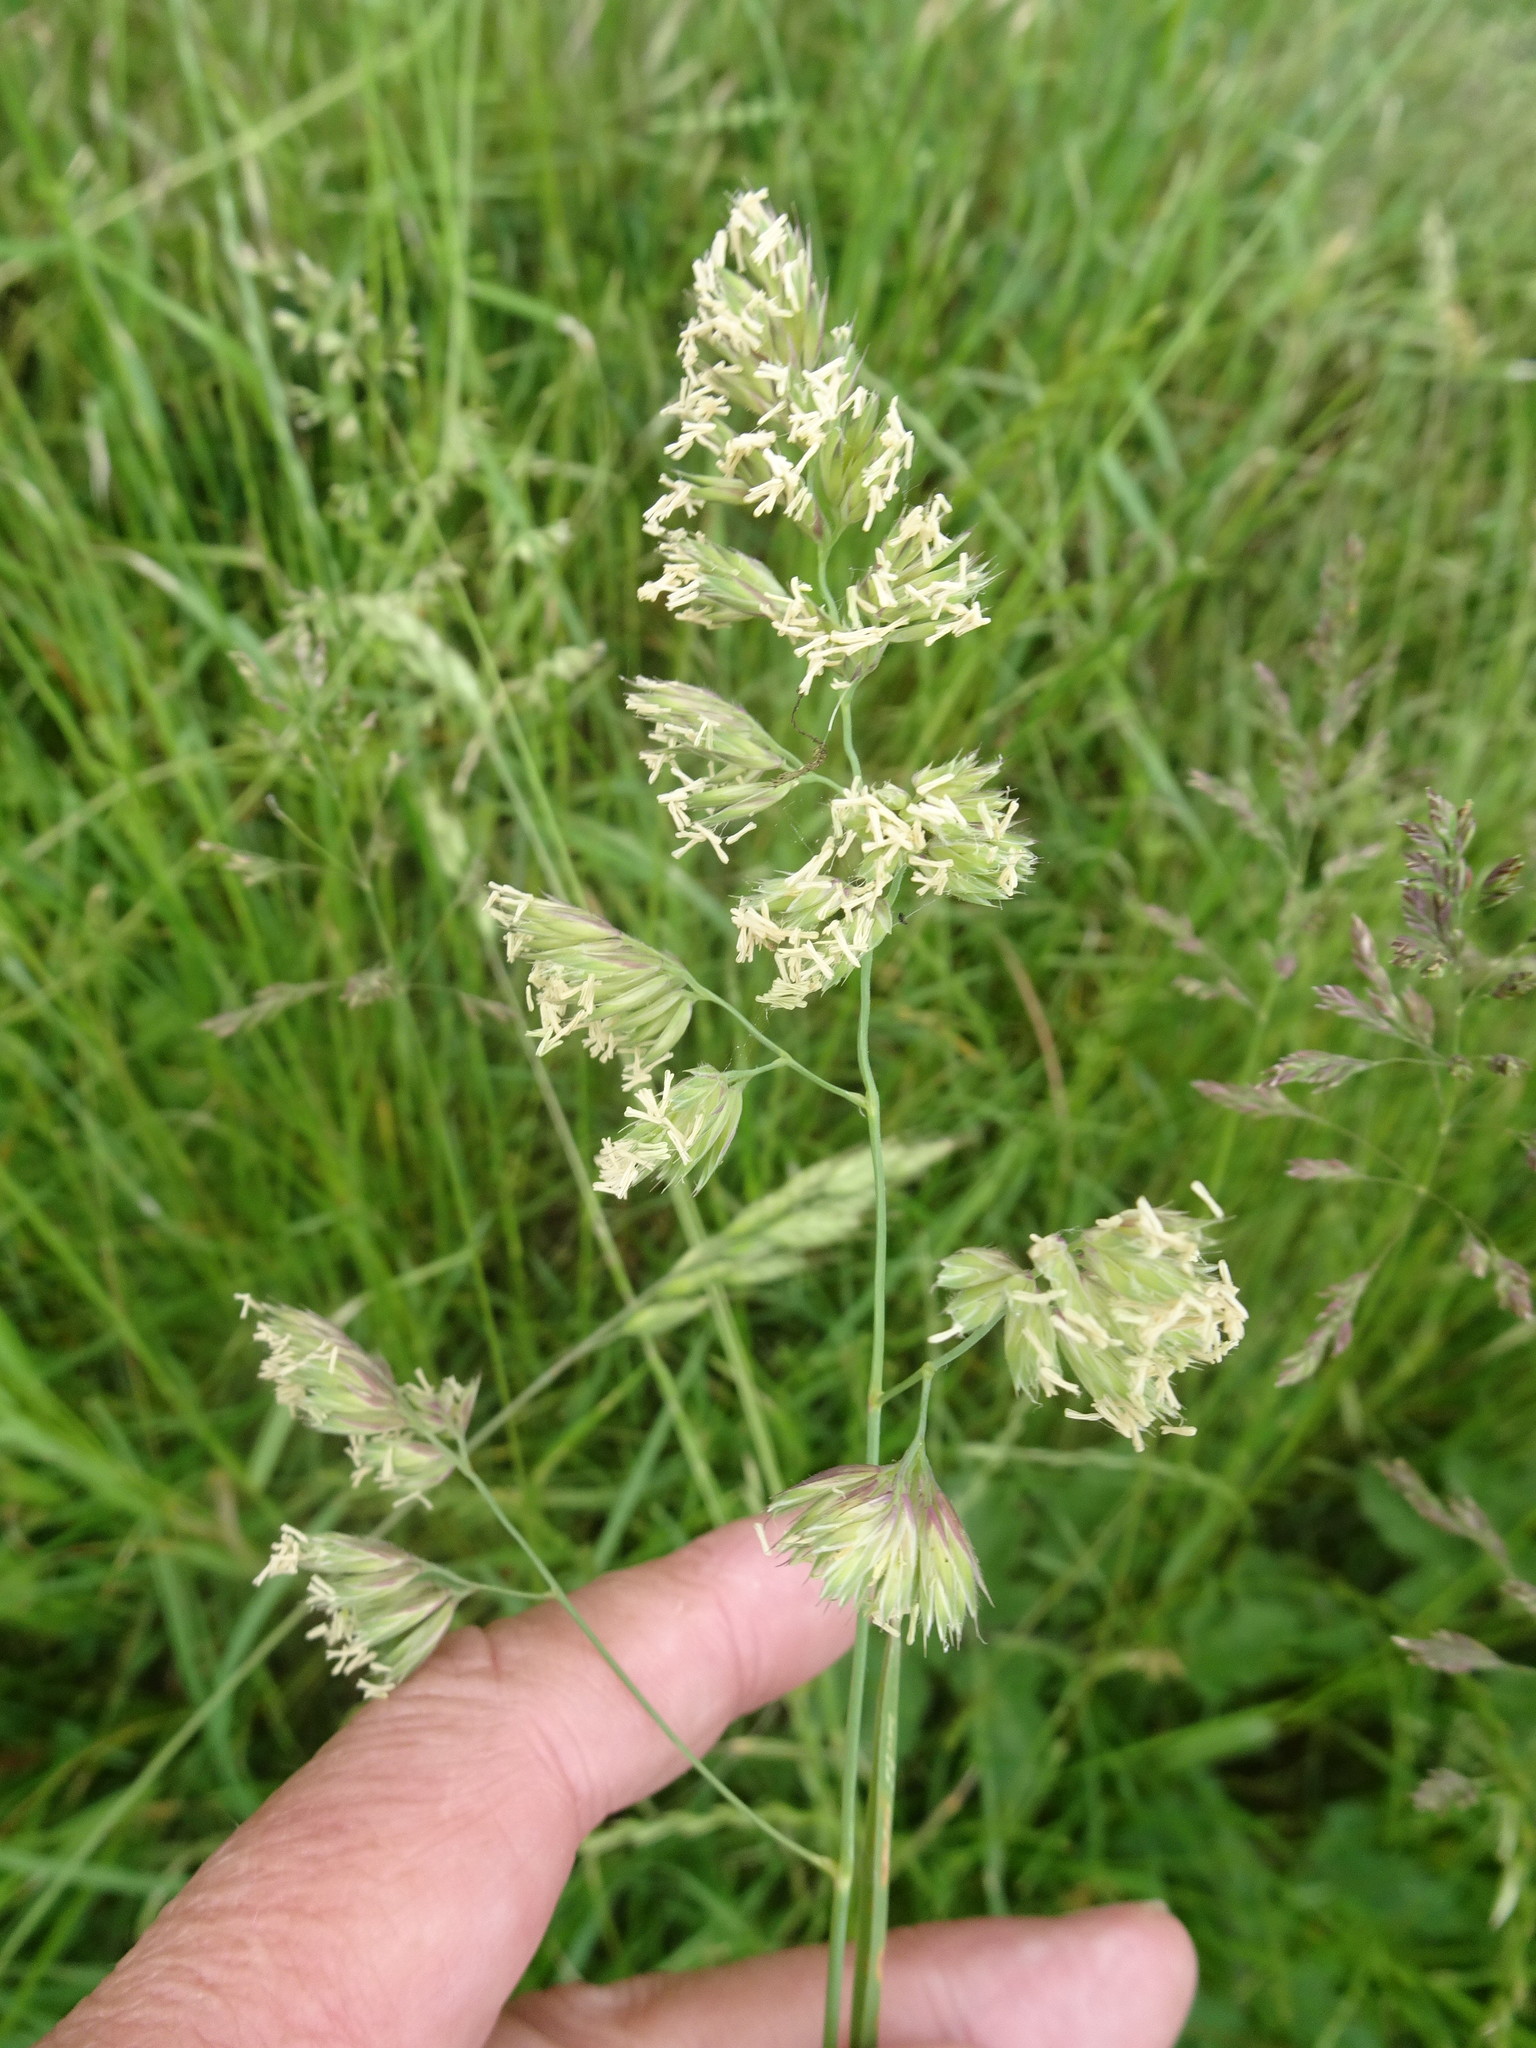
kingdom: Plantae
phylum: Tracheophyta
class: Liliopsida
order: Poales
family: Poaceae
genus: Dactylis
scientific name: Dactylis glomerata
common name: Orchardgrass
